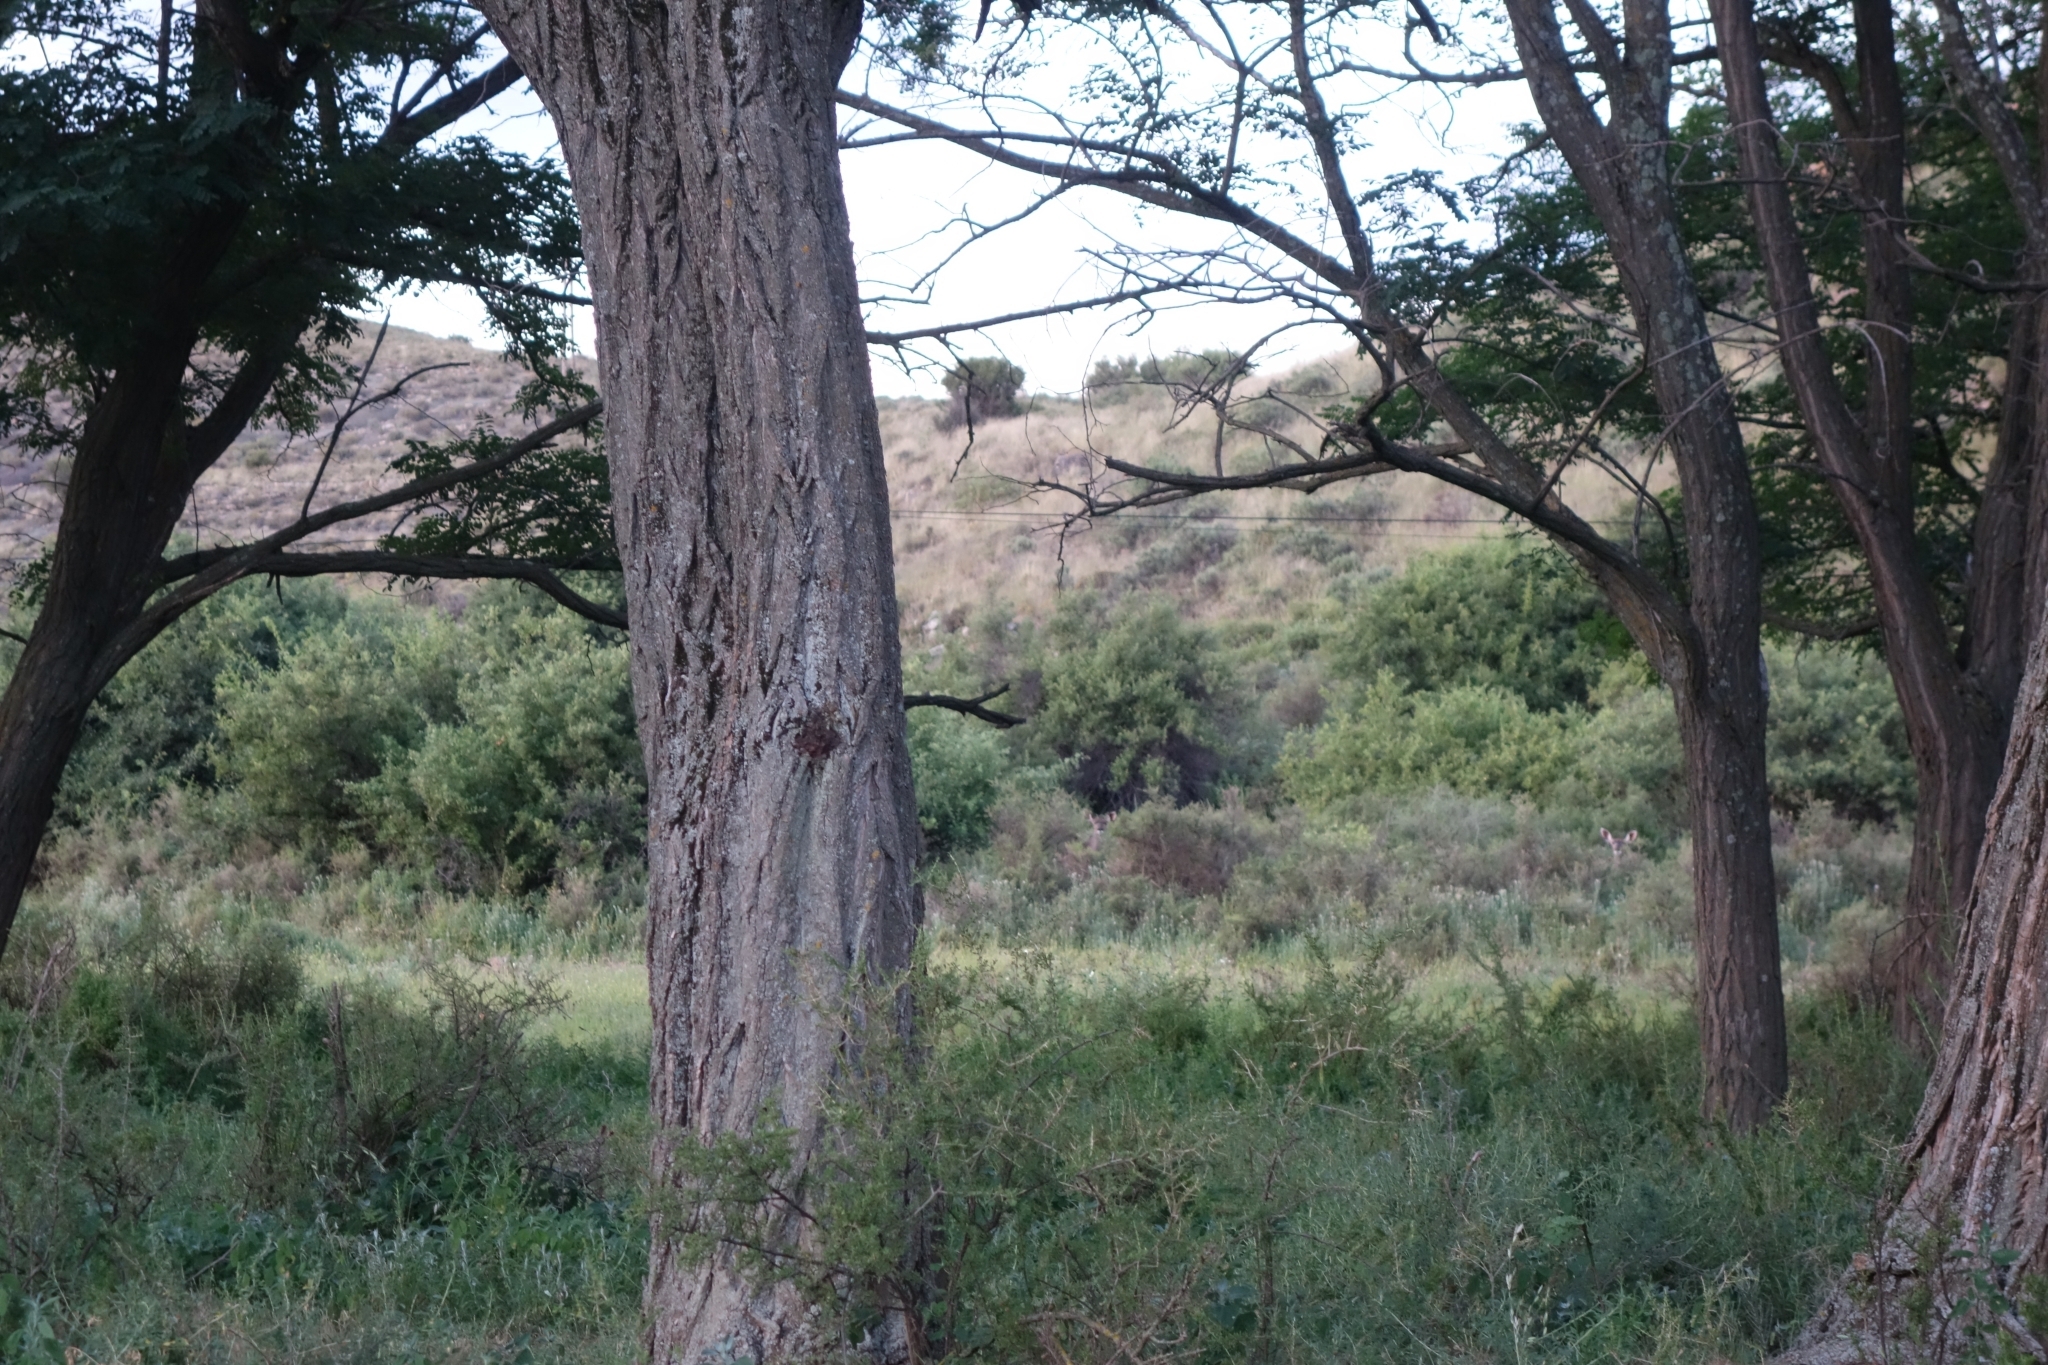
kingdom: Animalia
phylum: Chordata
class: Mammalia
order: Artiodactyla
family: Bovidae
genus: Tragelaphus
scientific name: Tragelaphus strepsiceros
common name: Greater kudu
